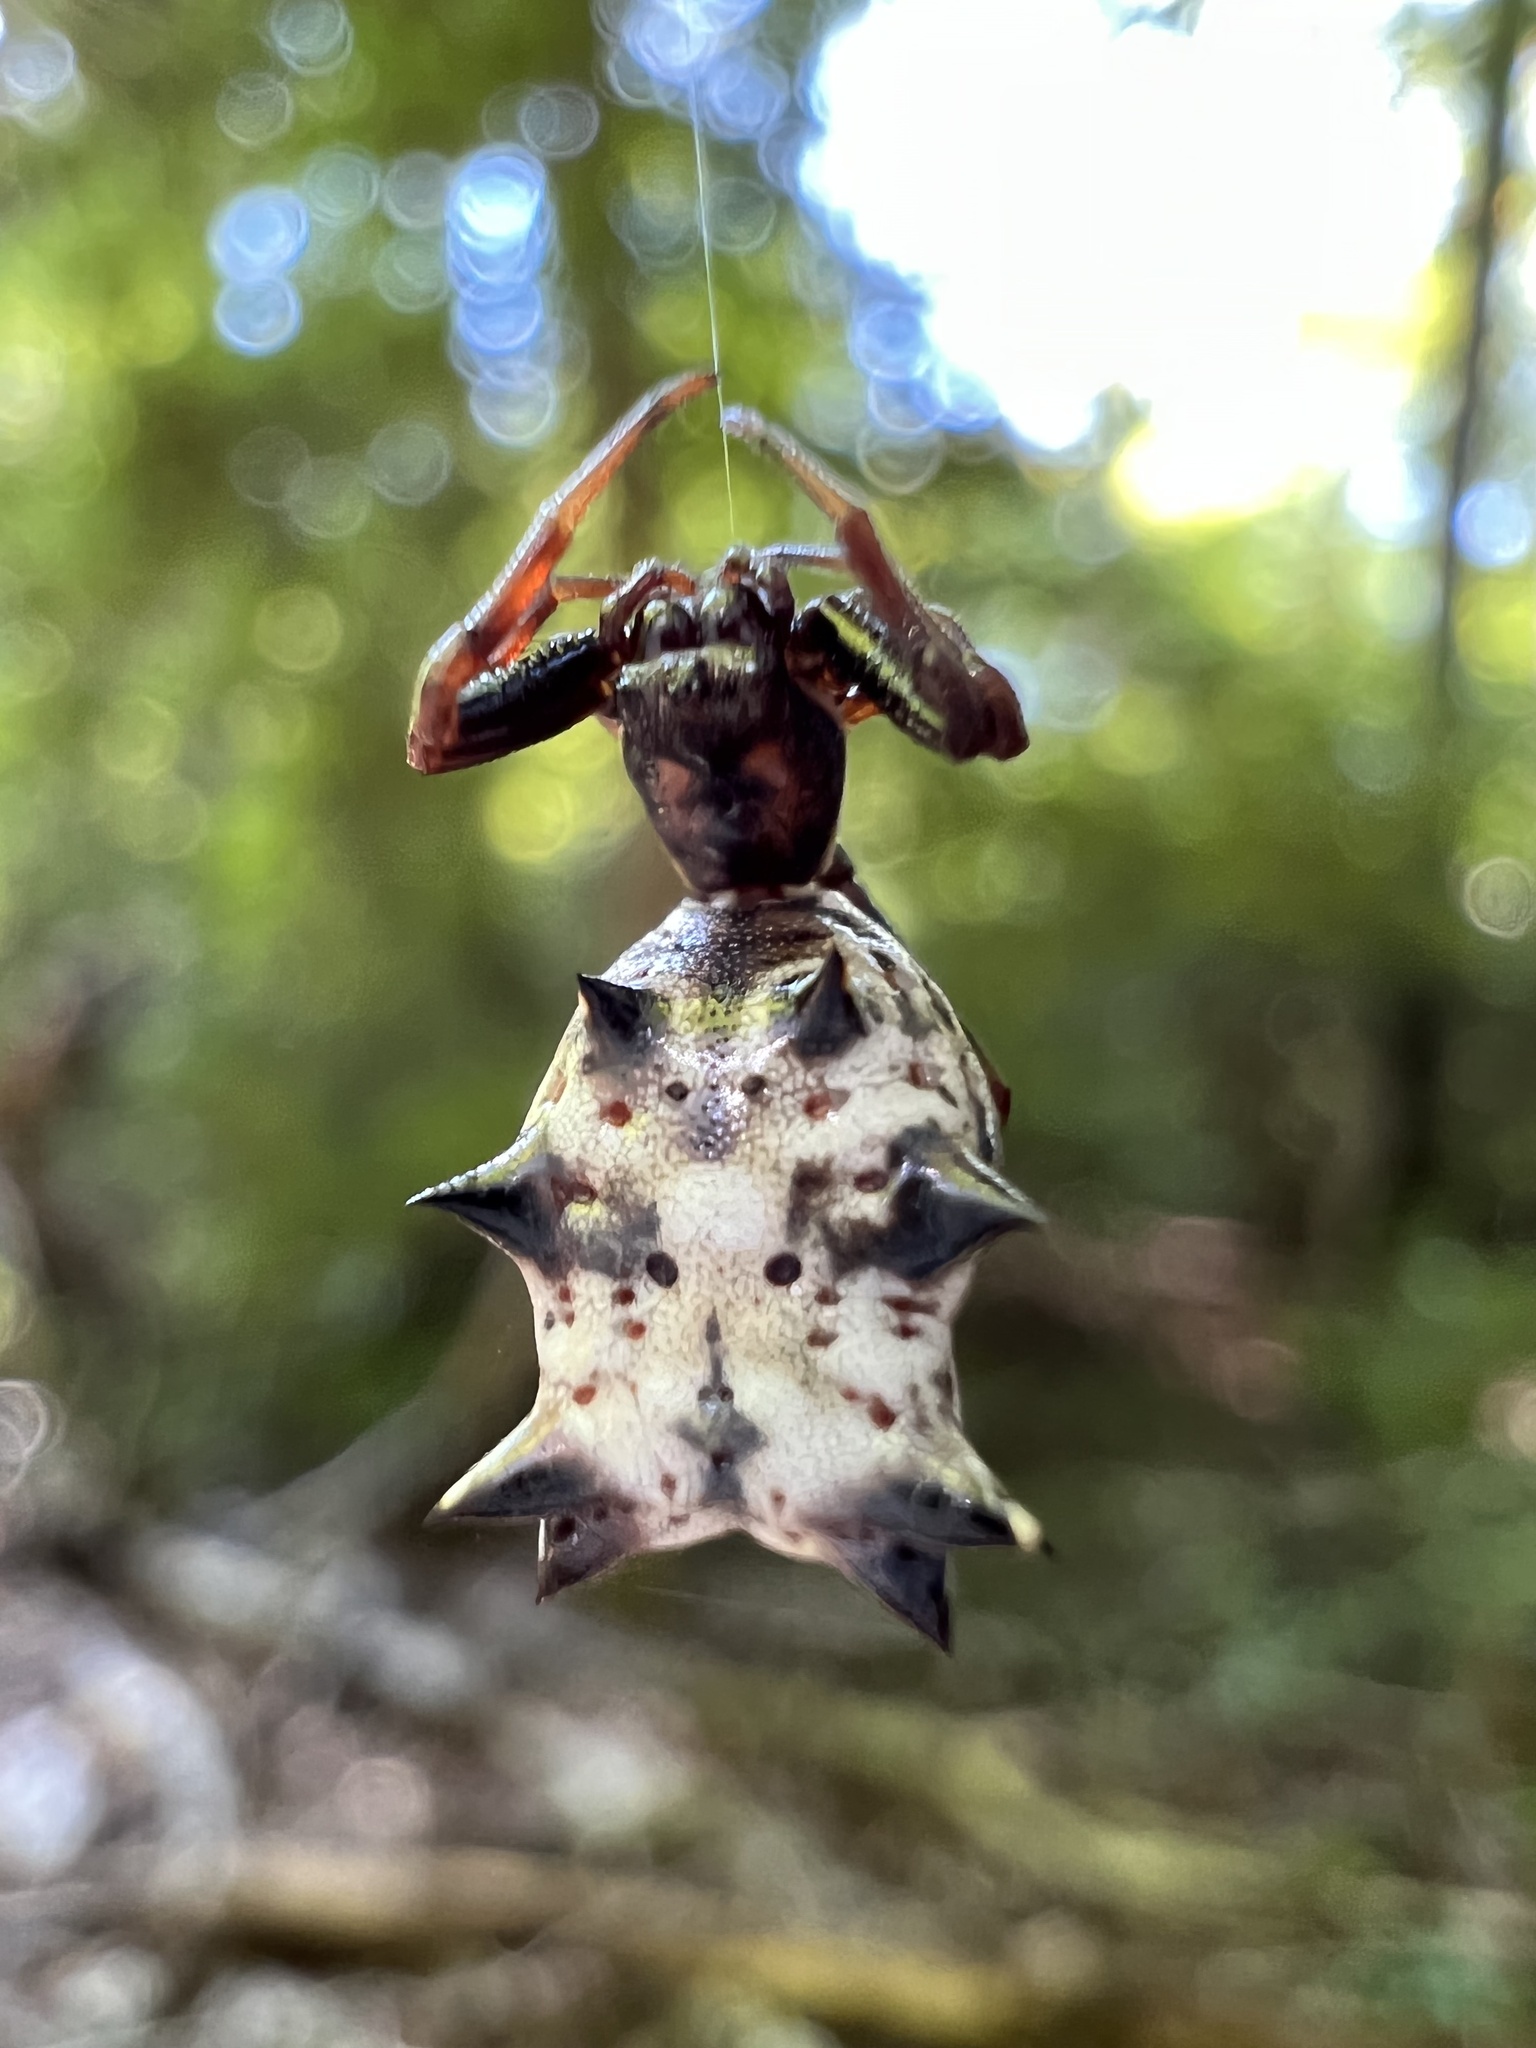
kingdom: Animalia
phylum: Arthropoda
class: Arachnida
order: Araneae
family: Araneidae
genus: Micrathena
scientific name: Micrathena gracilis
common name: Orb weavers
